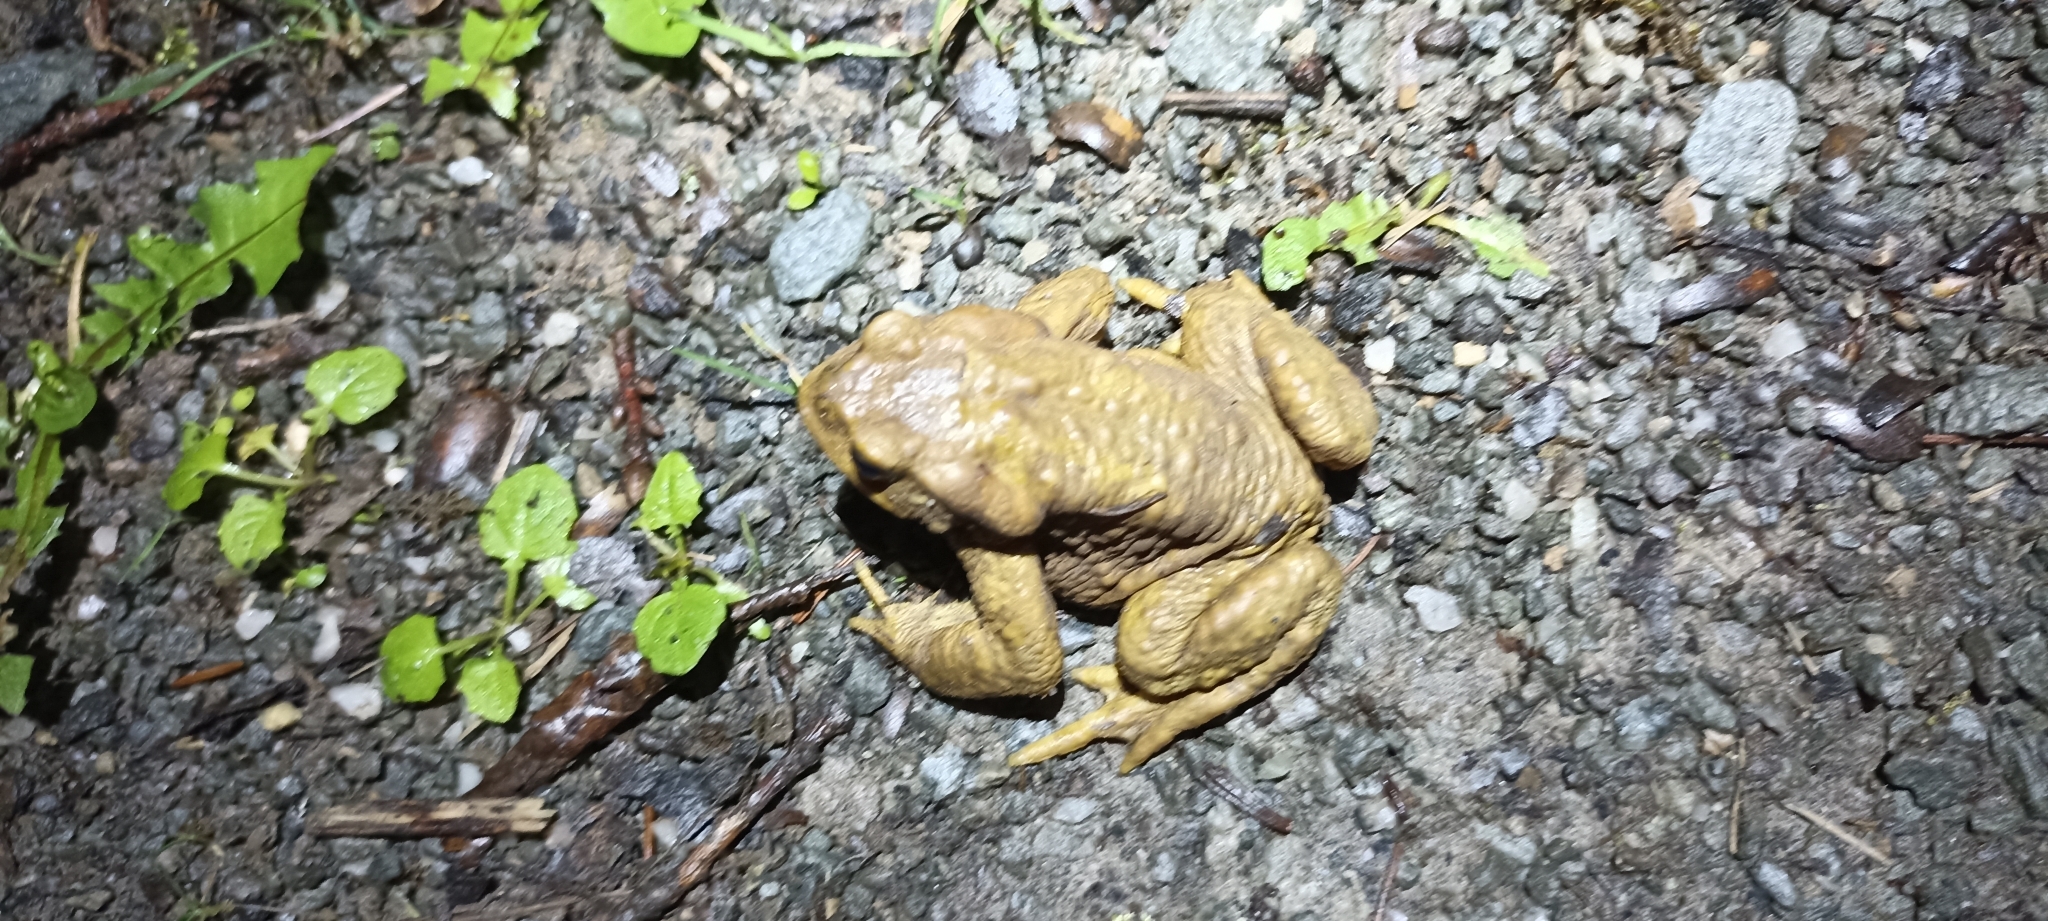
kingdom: Animalia
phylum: Chordata
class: Amphibia
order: Anura
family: Bufonidae
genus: Bufo
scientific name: Bufo spinosus
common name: Western common toad
